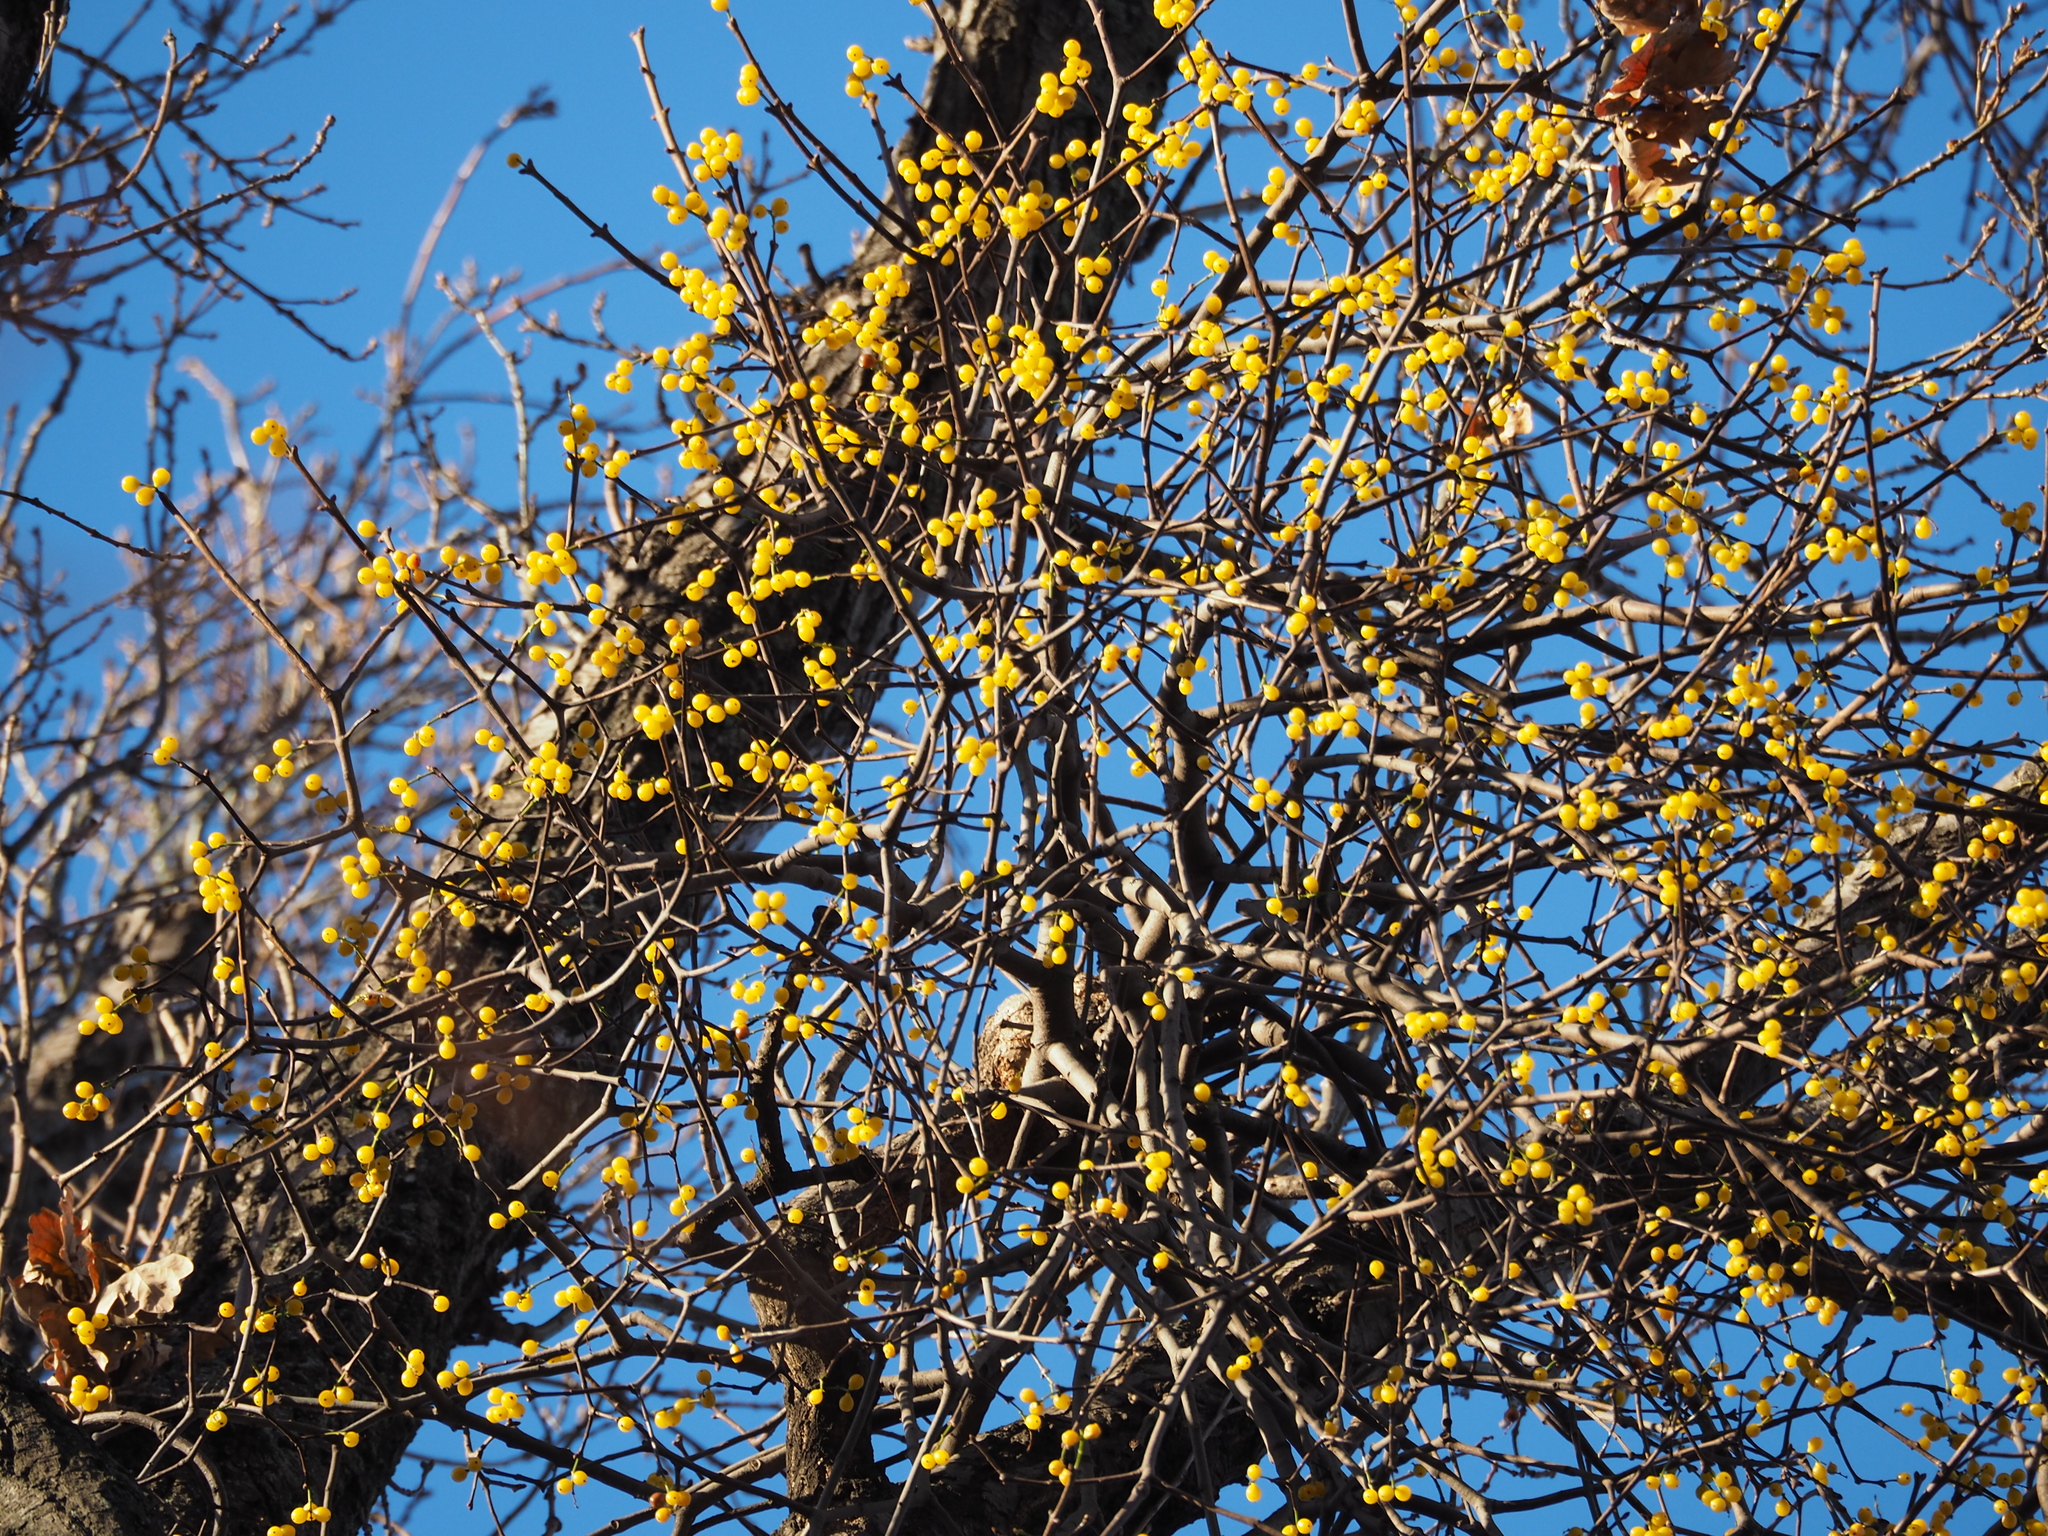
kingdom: Plantae
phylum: Tracheophyta
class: Magnoliopsida
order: Santalales
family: Loranthaceae
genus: Loranthus
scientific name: Loranthus europaeus
